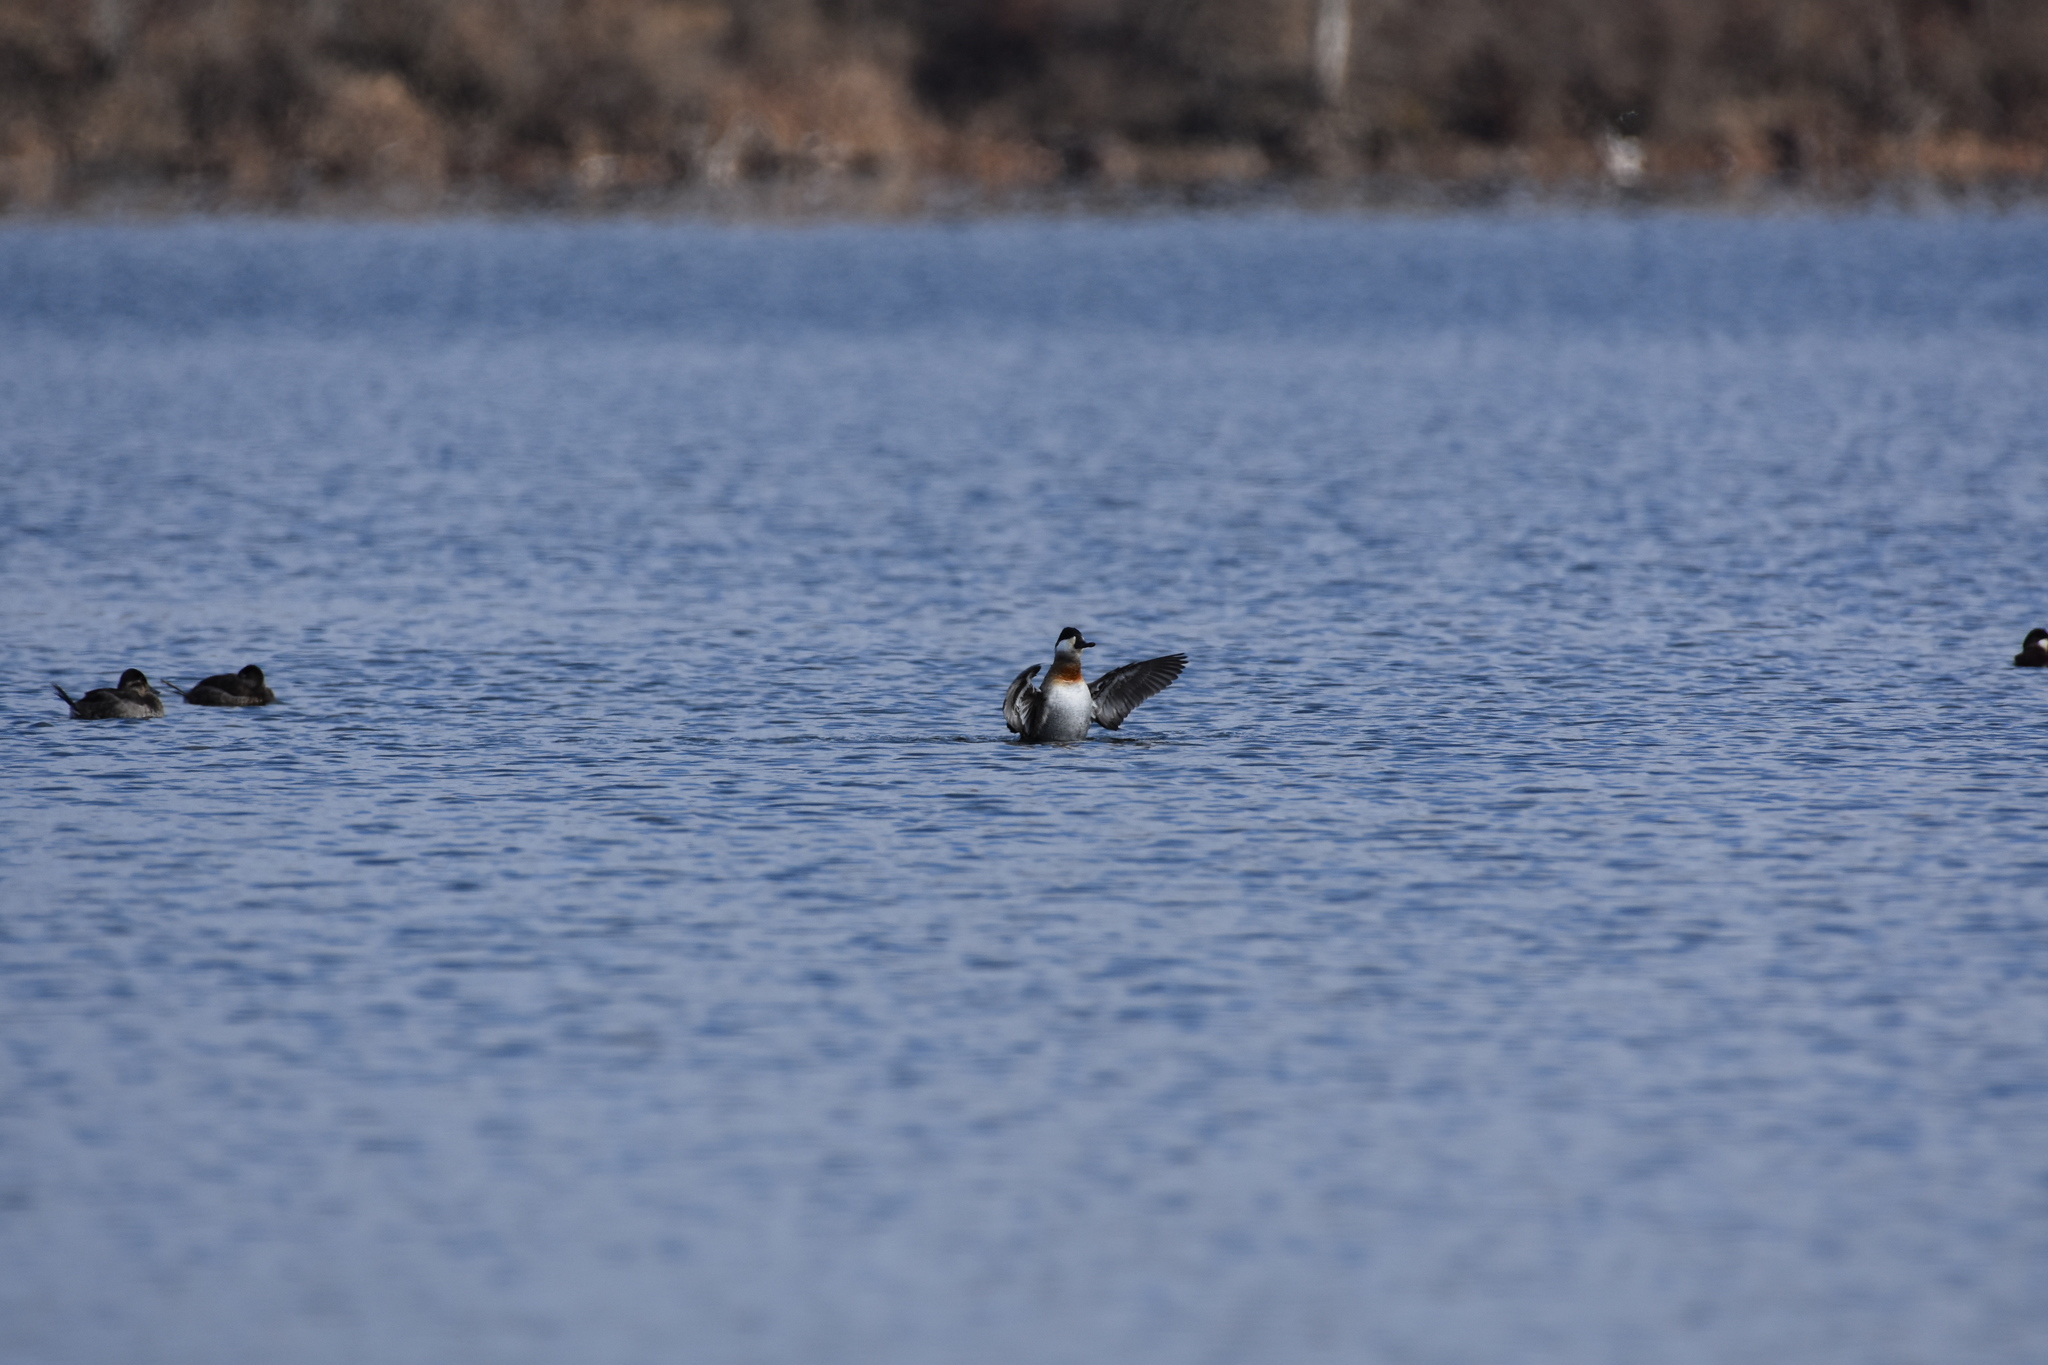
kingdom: Animalia
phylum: Chordata
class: Aves
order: Anseriformes
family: Anatidae
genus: Oxyura
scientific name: Oxyura jamaicensis
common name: Ruddy duck
